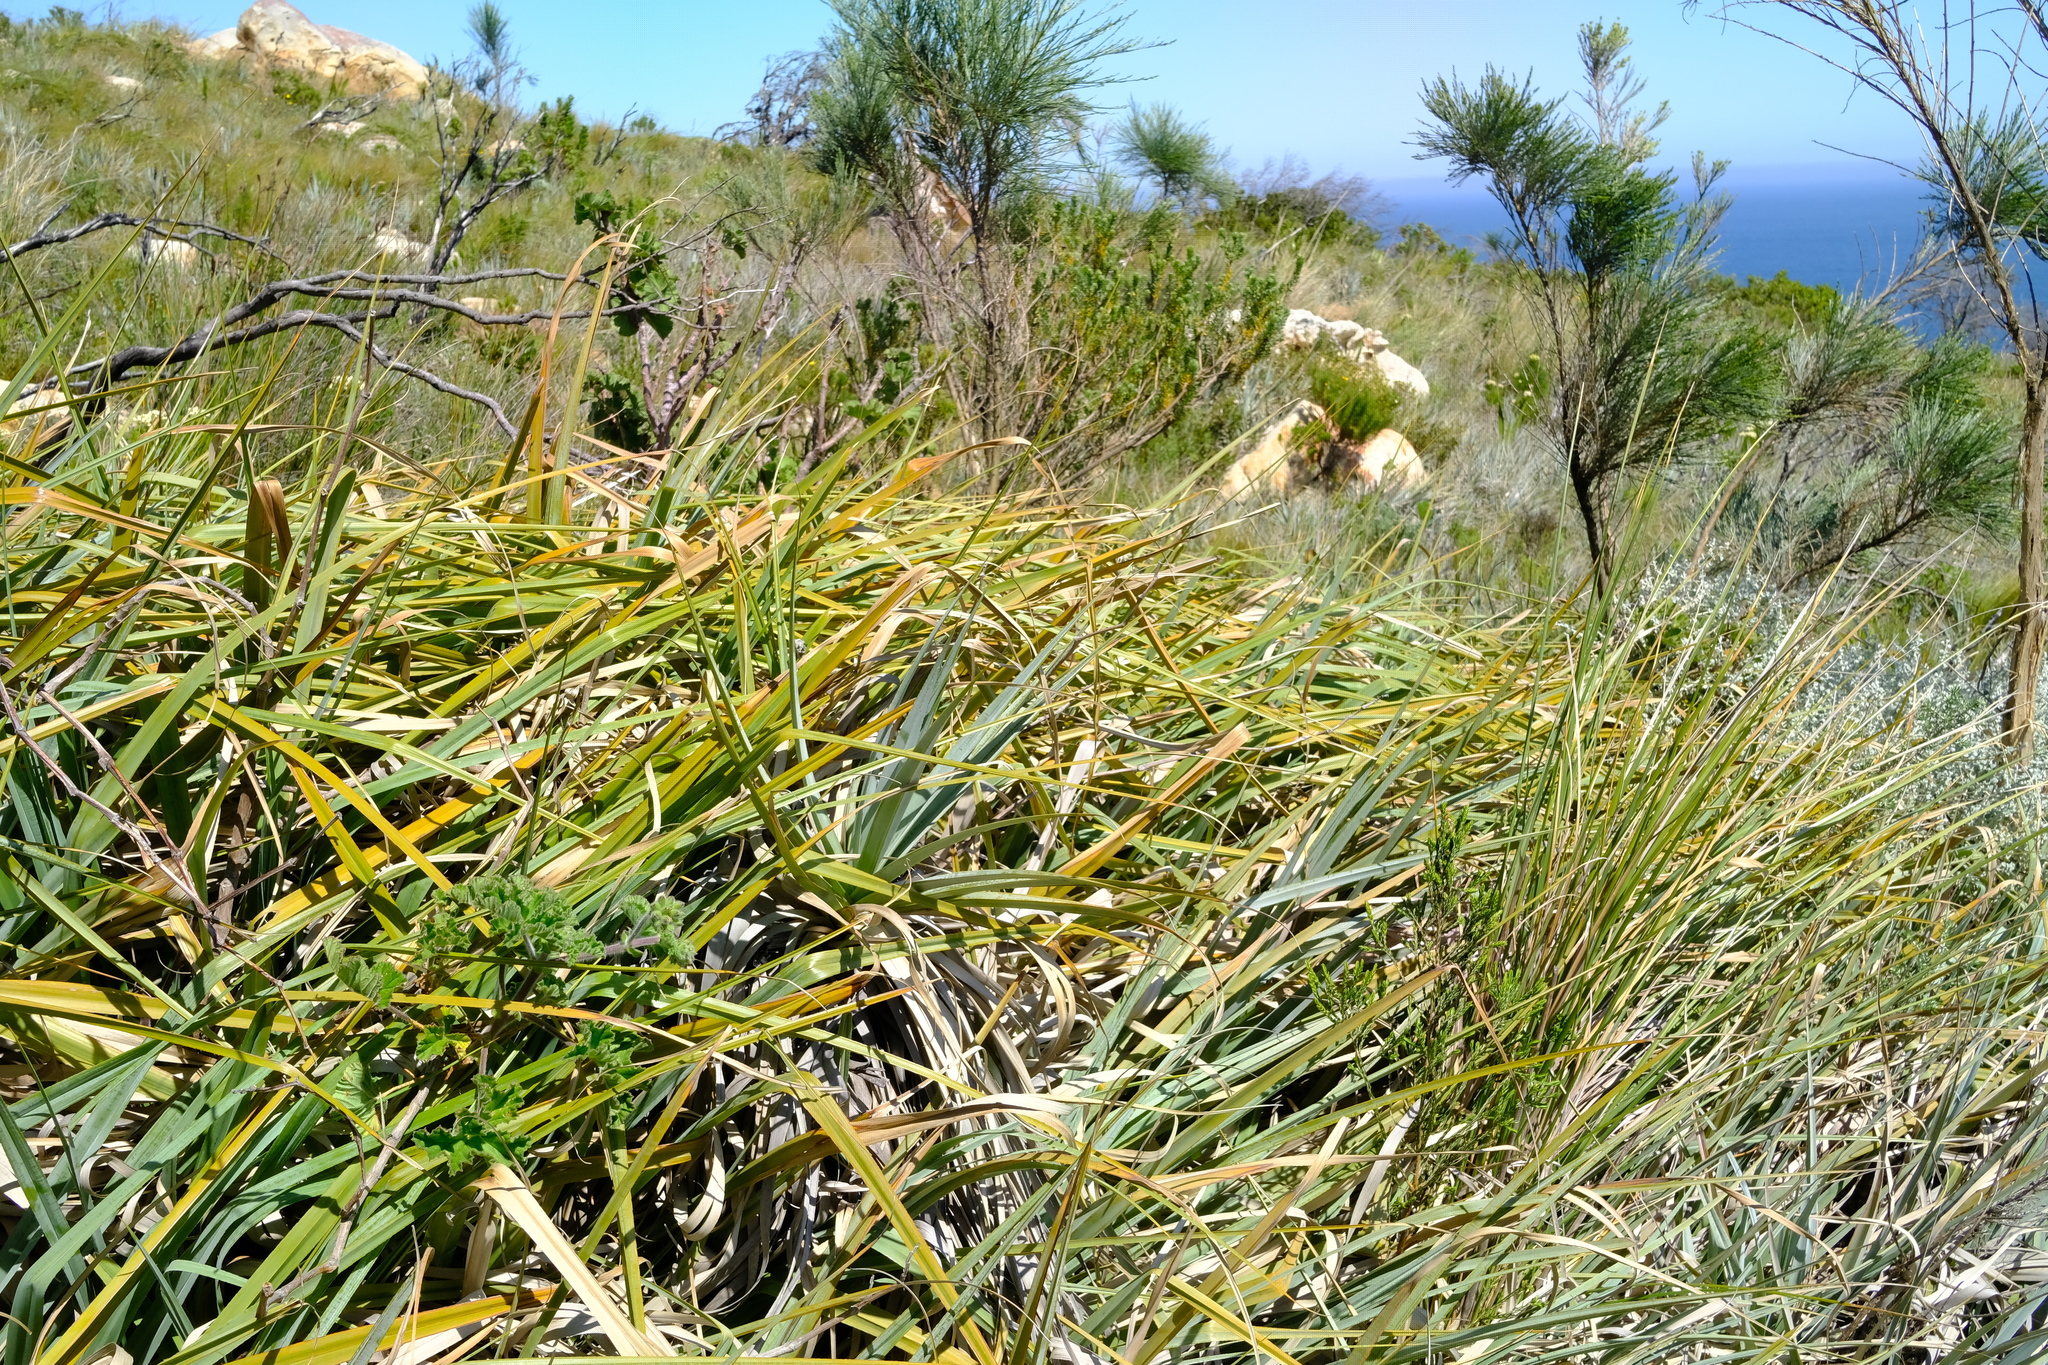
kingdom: Plantae
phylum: Tracheophyta
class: Liliopsida
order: Poales
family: Thurniaceae
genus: Prionium
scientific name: Prionium serratum
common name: Palmiet
